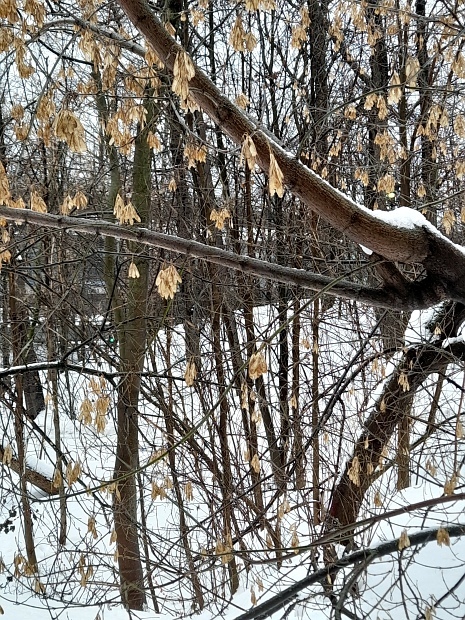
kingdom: Plantae
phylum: Tracheophyta
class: Magnoliopsida
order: Sapindales
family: Sapindaceae
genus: Acer
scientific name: Acer negundo
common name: Ashleaf maple
